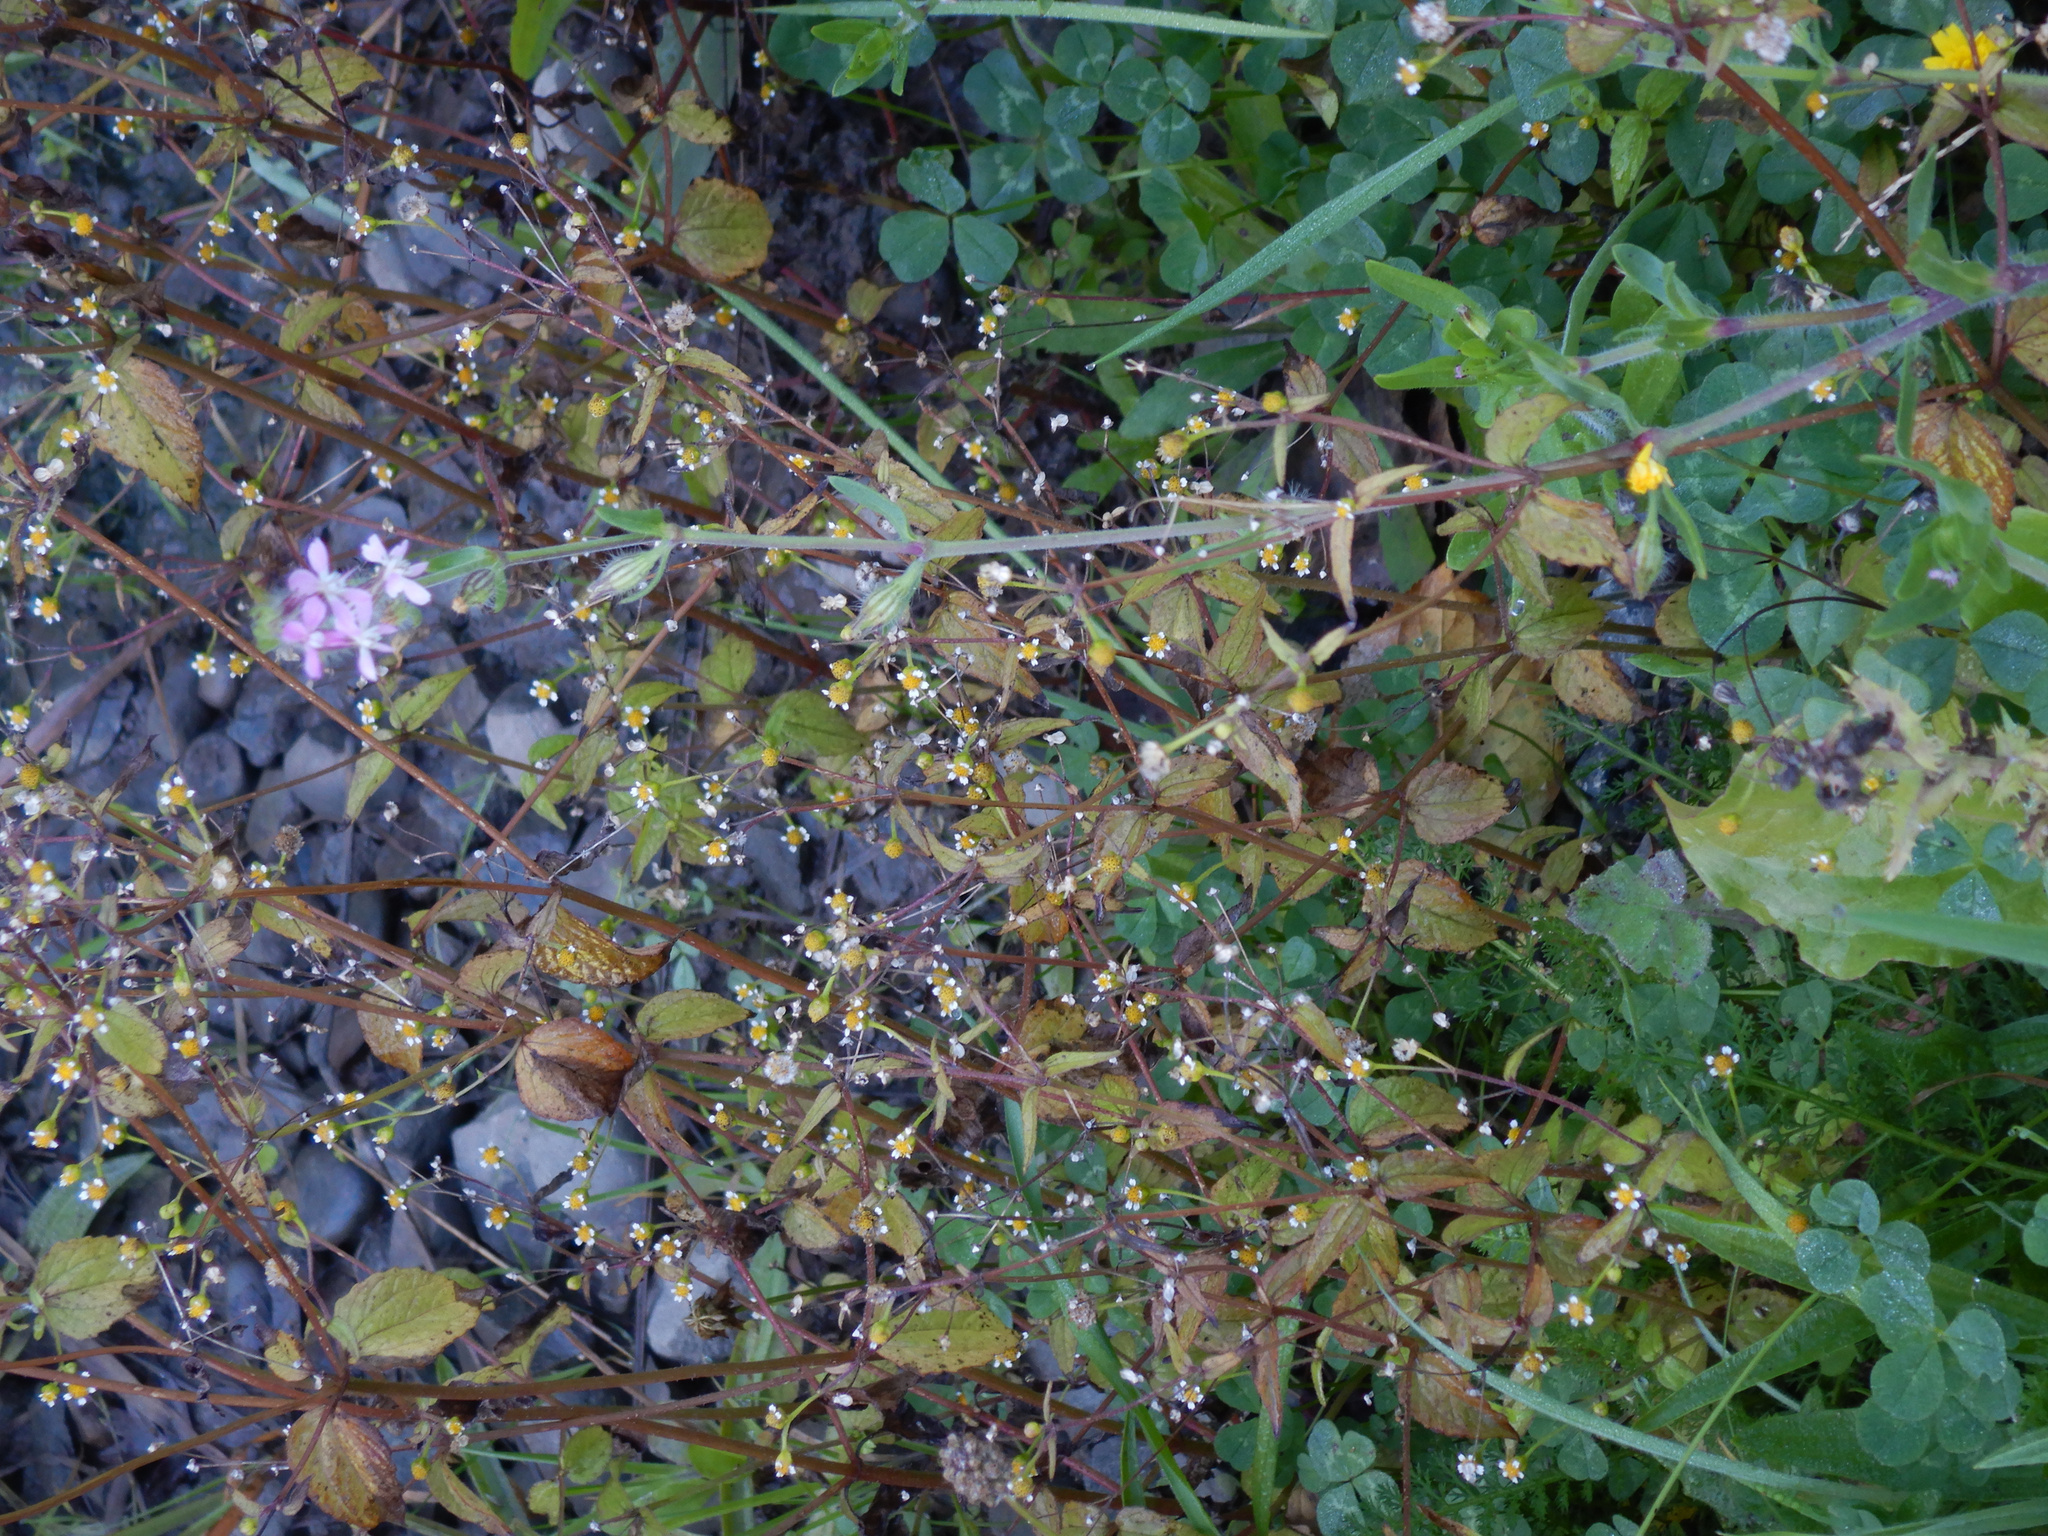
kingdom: Plantae
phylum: Tracheophyta
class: Magnoliopsida
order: Asterales
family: Asteraceae
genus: Galinsoga
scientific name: Galinsoga parviflora
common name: Gallant soldier
